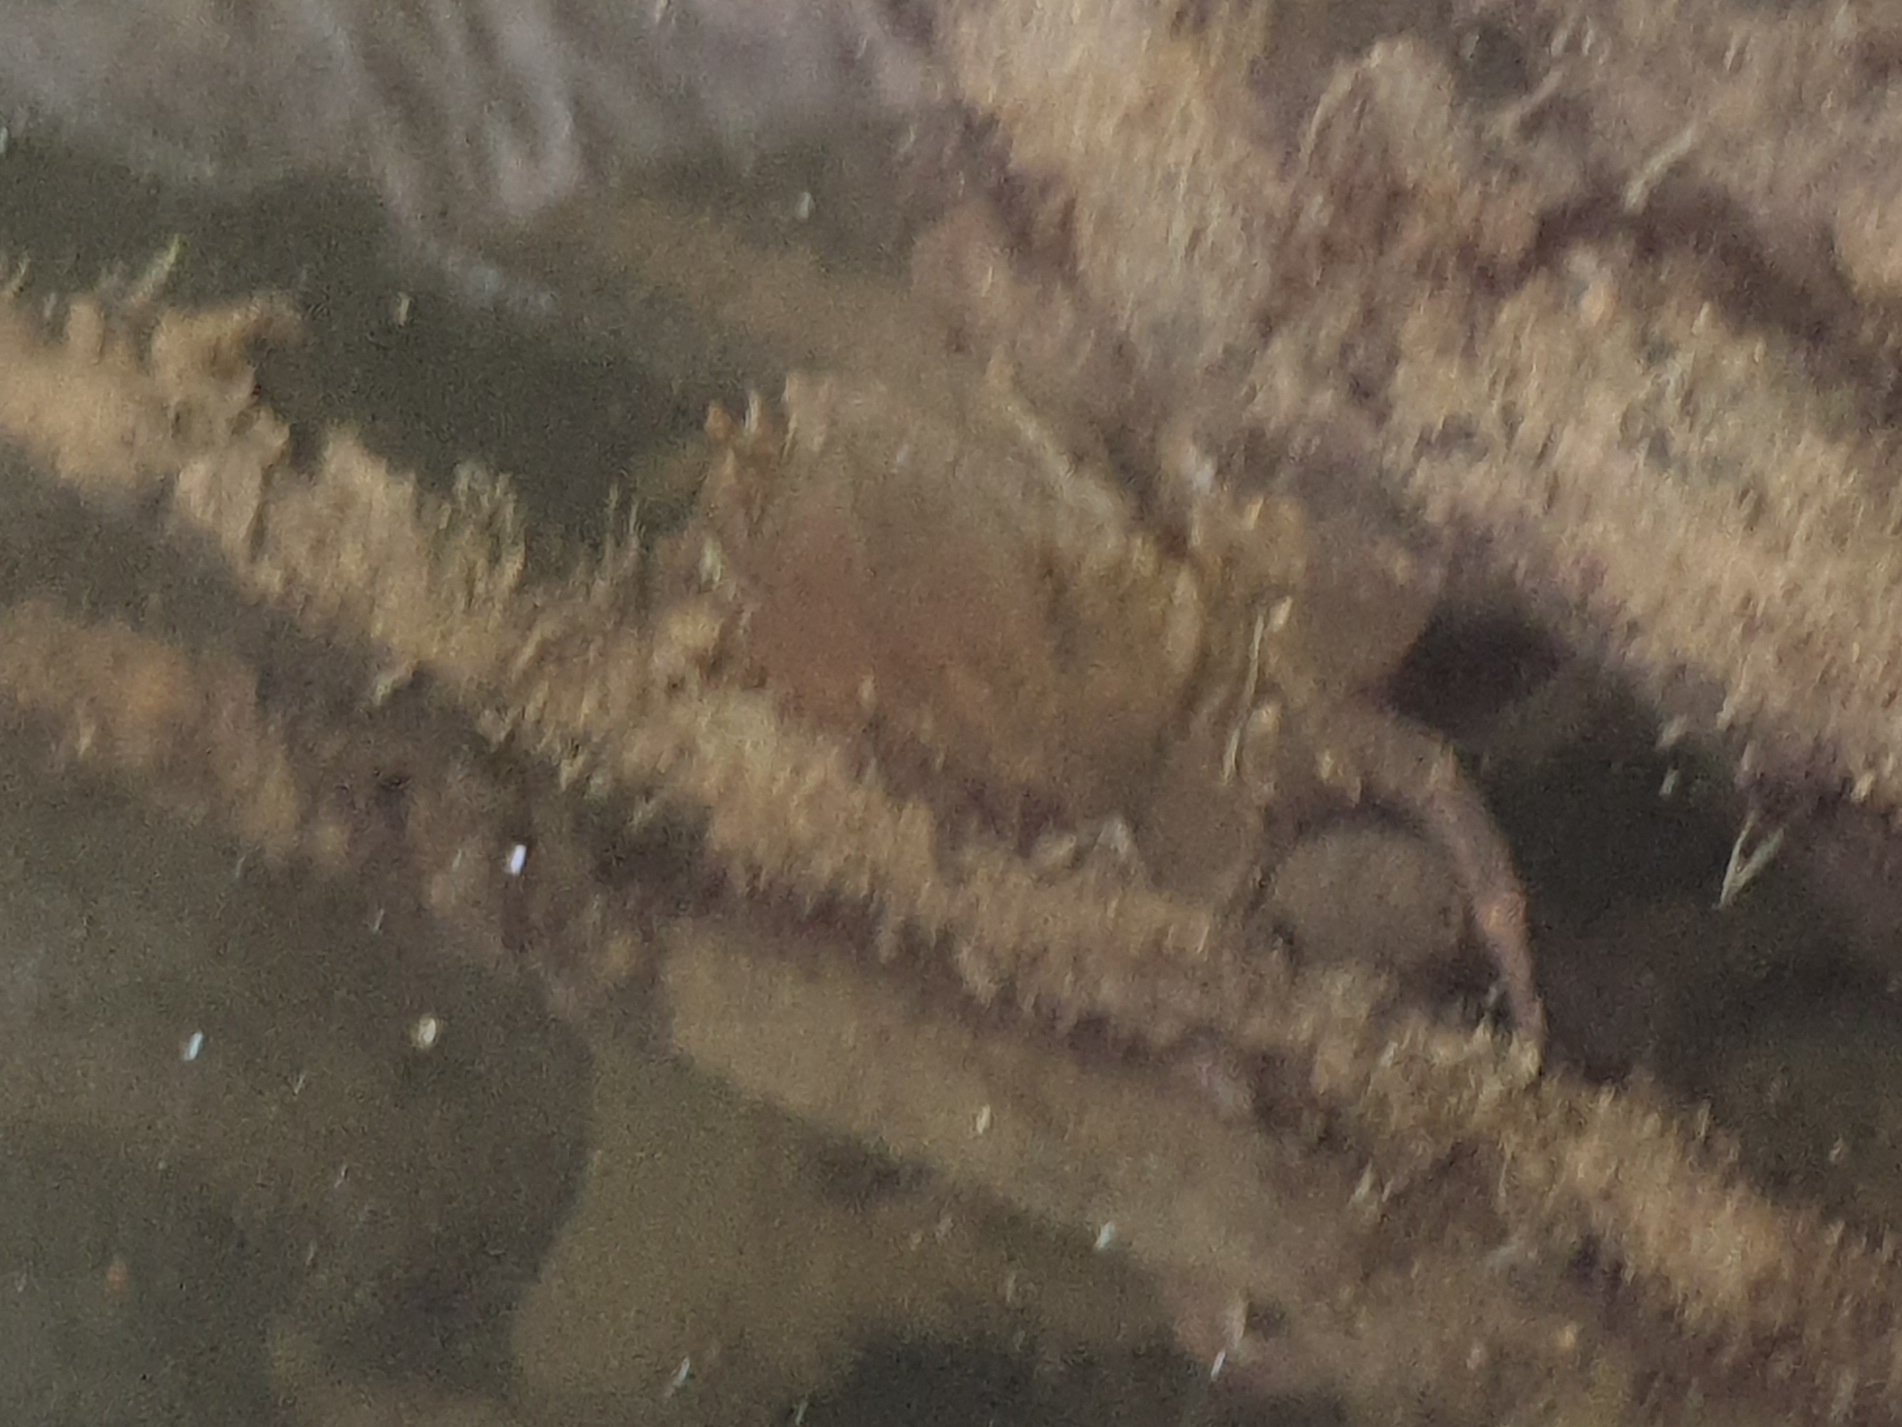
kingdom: Animalia
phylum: Arthropoda
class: Malacostraca
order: Decapoda
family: Potamidae
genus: Potamon
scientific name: Potamon algeriense
